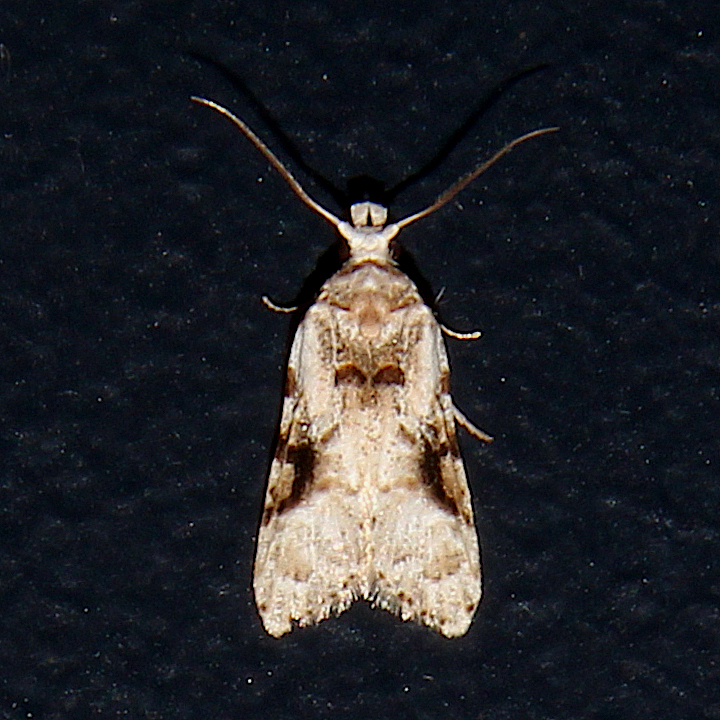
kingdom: Animalia
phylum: Arthropoda
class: Insecta
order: Lepidoptera
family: Carposinidae
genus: Coscinoptycha
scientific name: Coscinoptycha improbana
